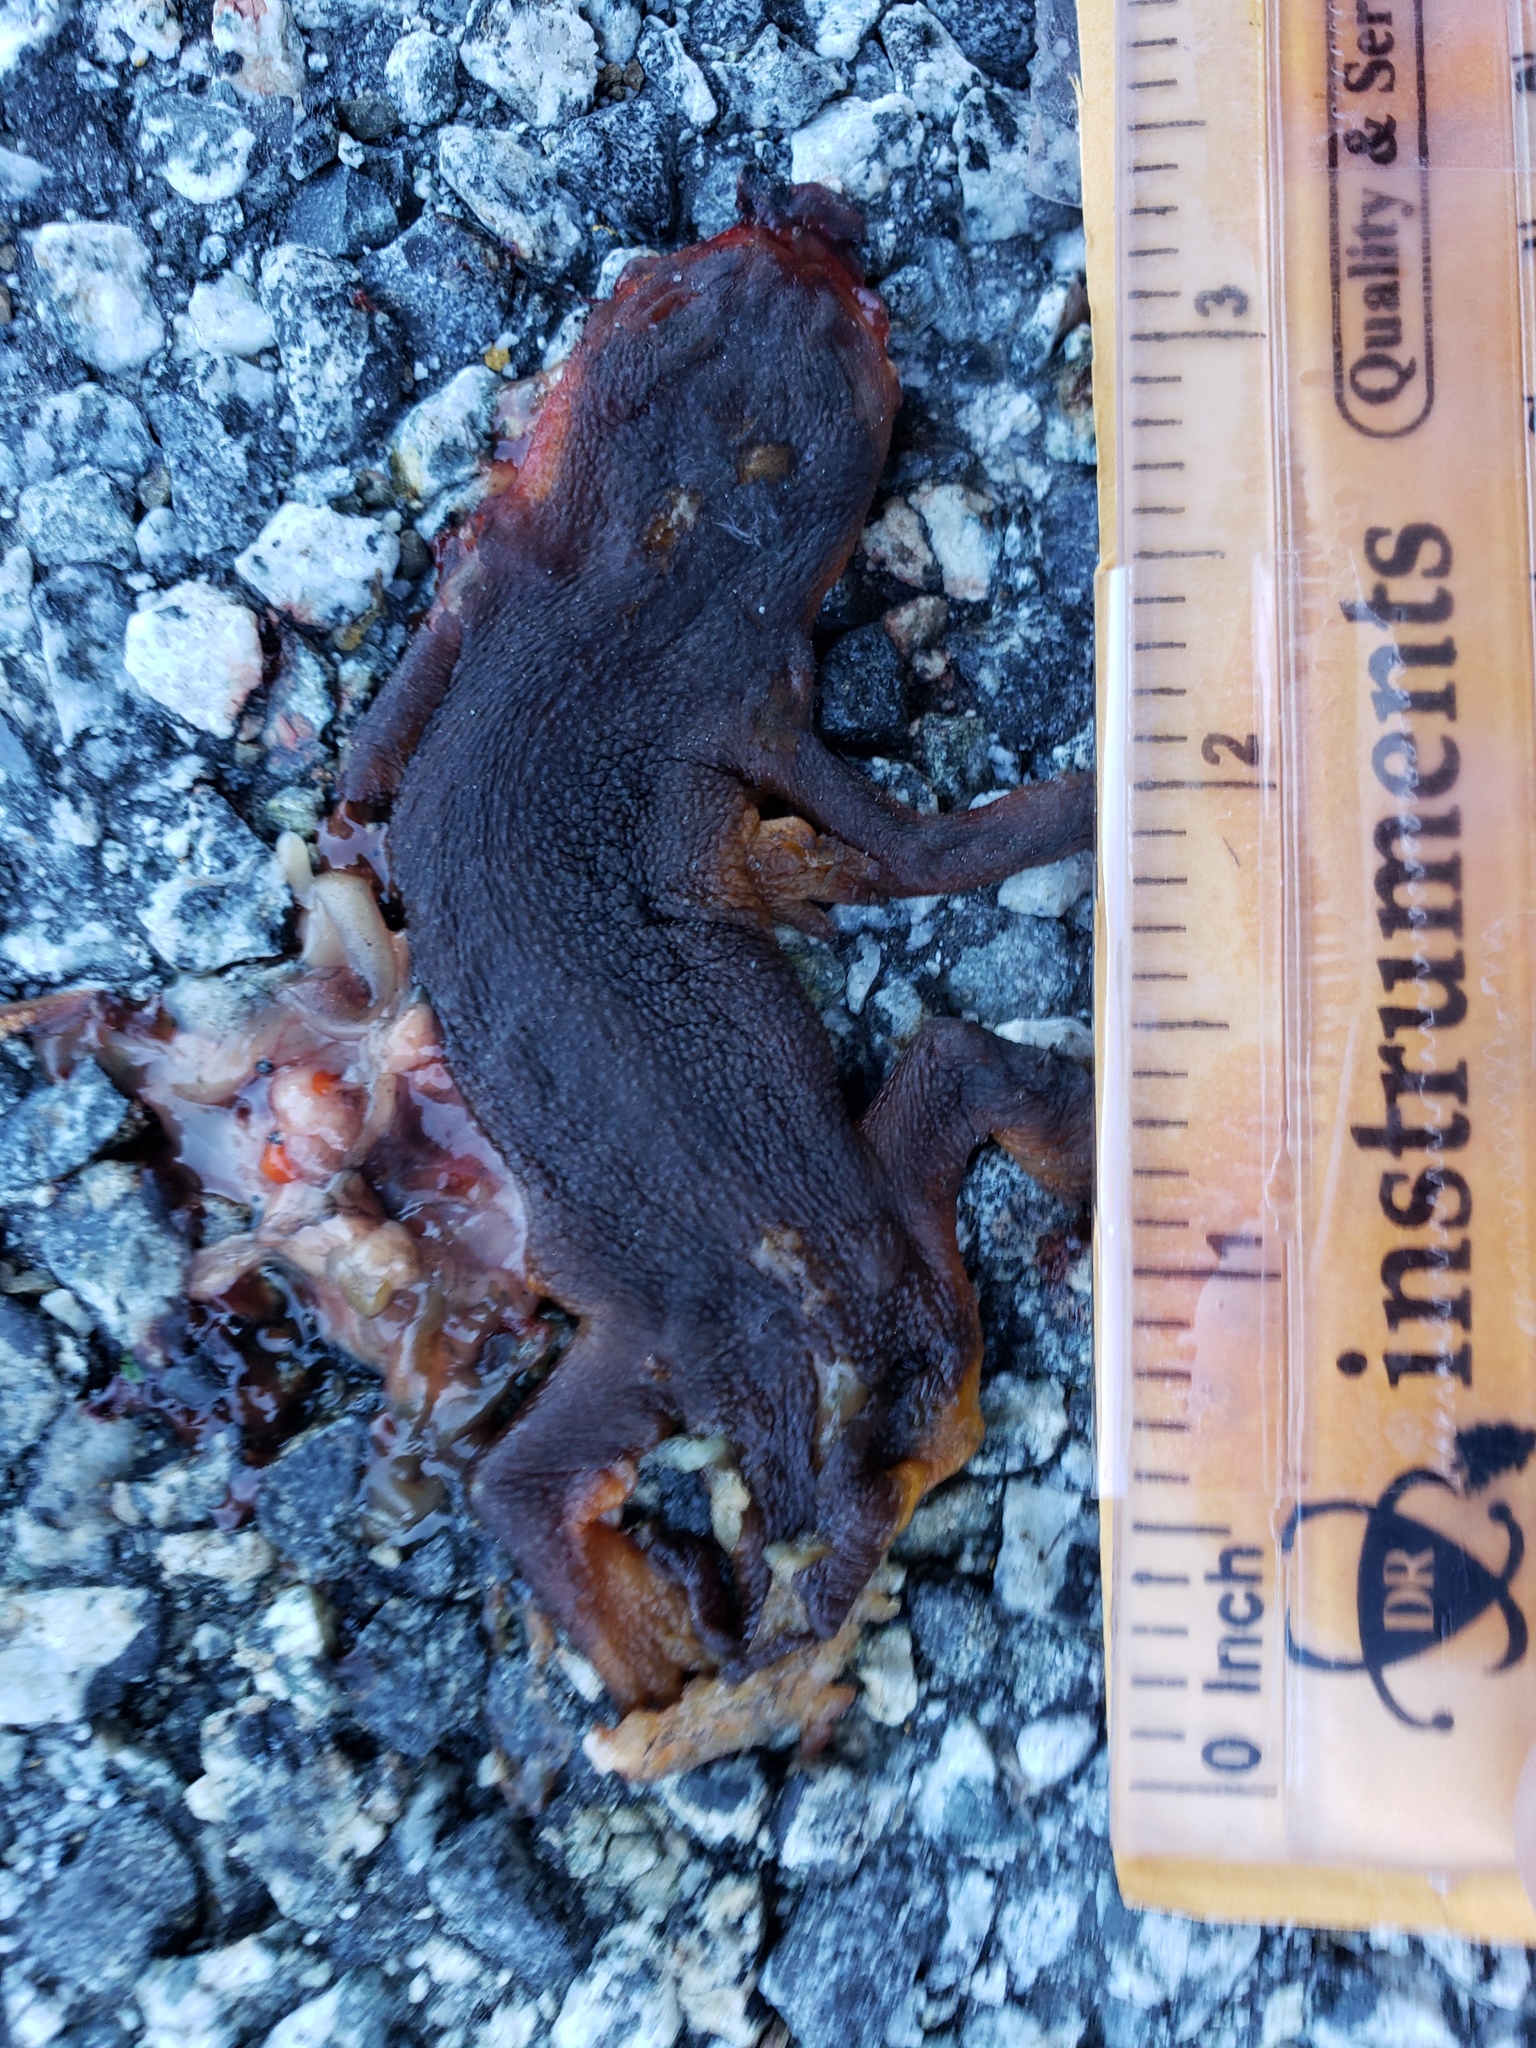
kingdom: Animalia
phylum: Chordata
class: Amphibia
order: Caudata
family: Salamandridae
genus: Taricha
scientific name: Taricha
